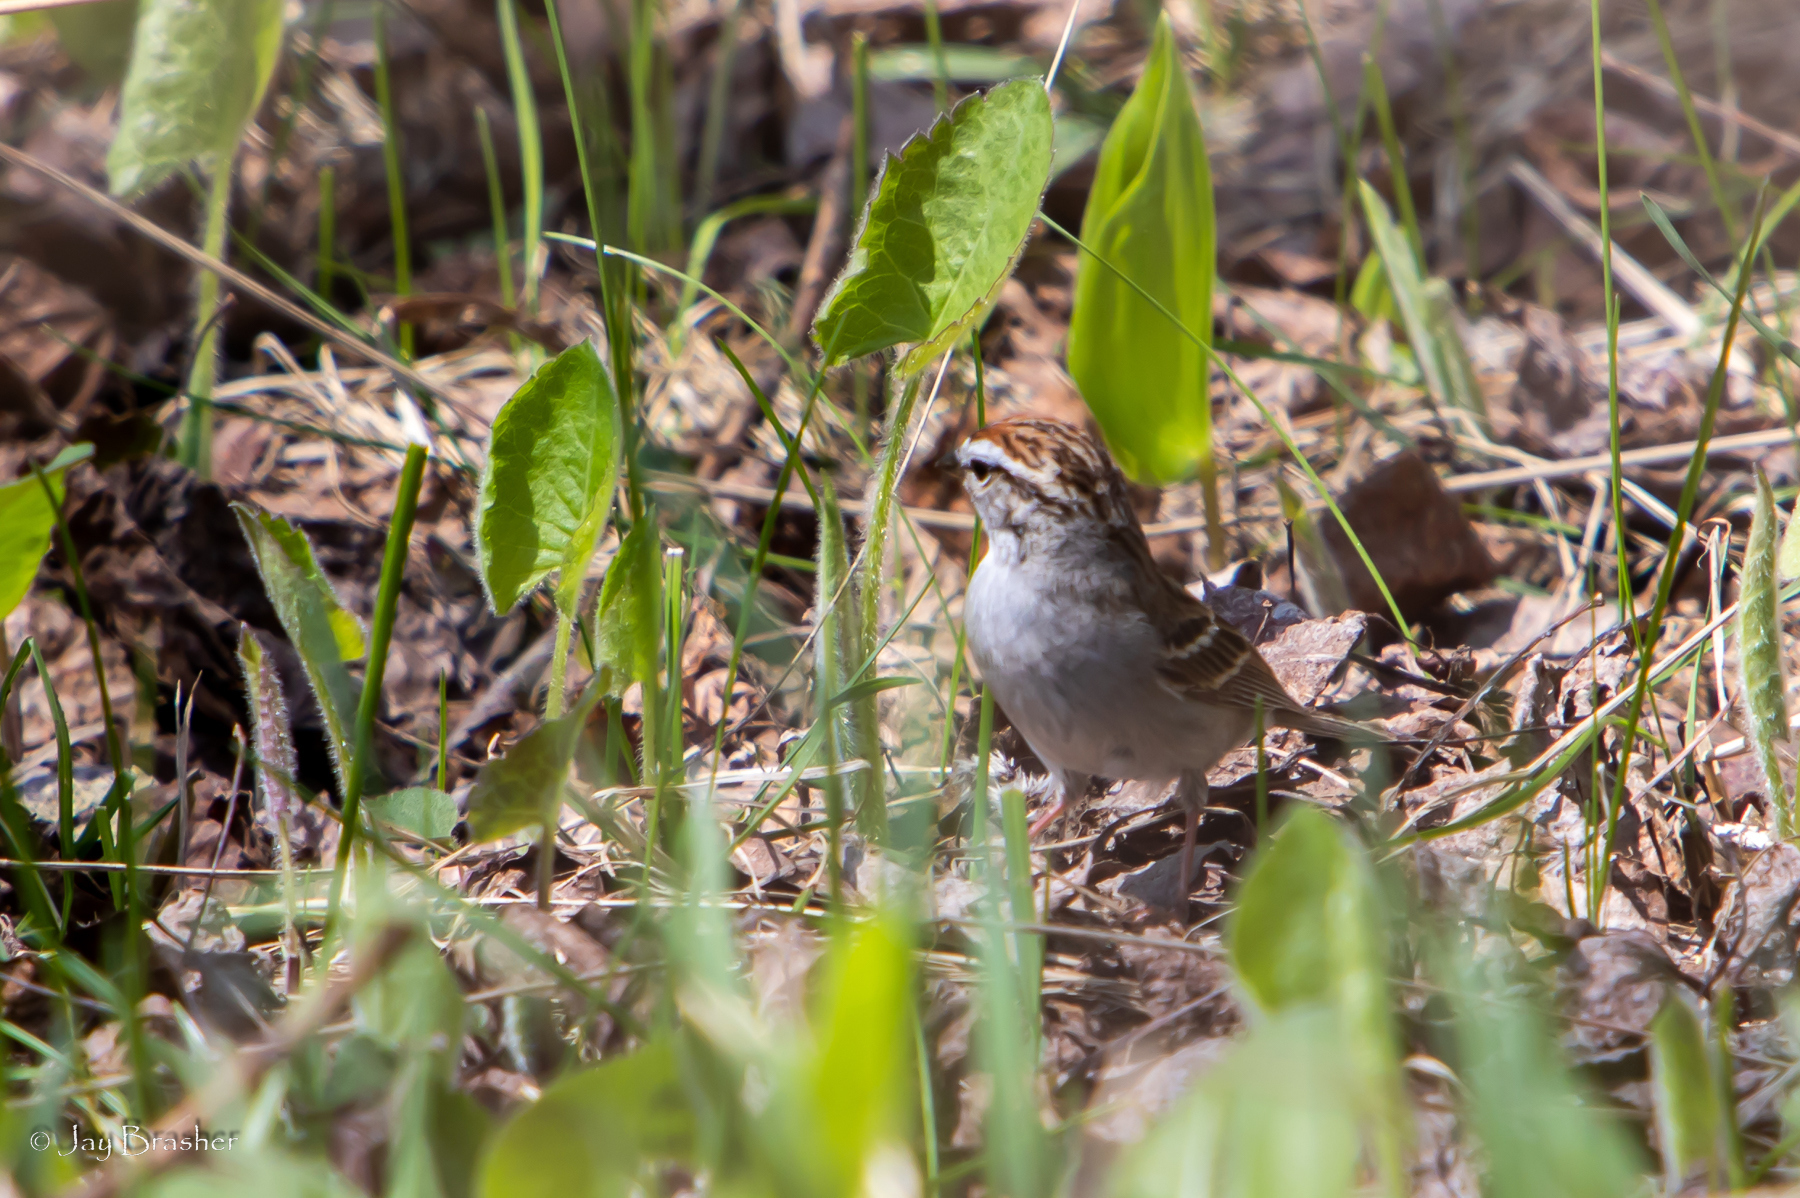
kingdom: Animalia
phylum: Chordata
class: Aves
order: Passeriformes
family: Passerellidae
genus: Spizella
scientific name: Spizella passerina
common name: Chipping sparrow
